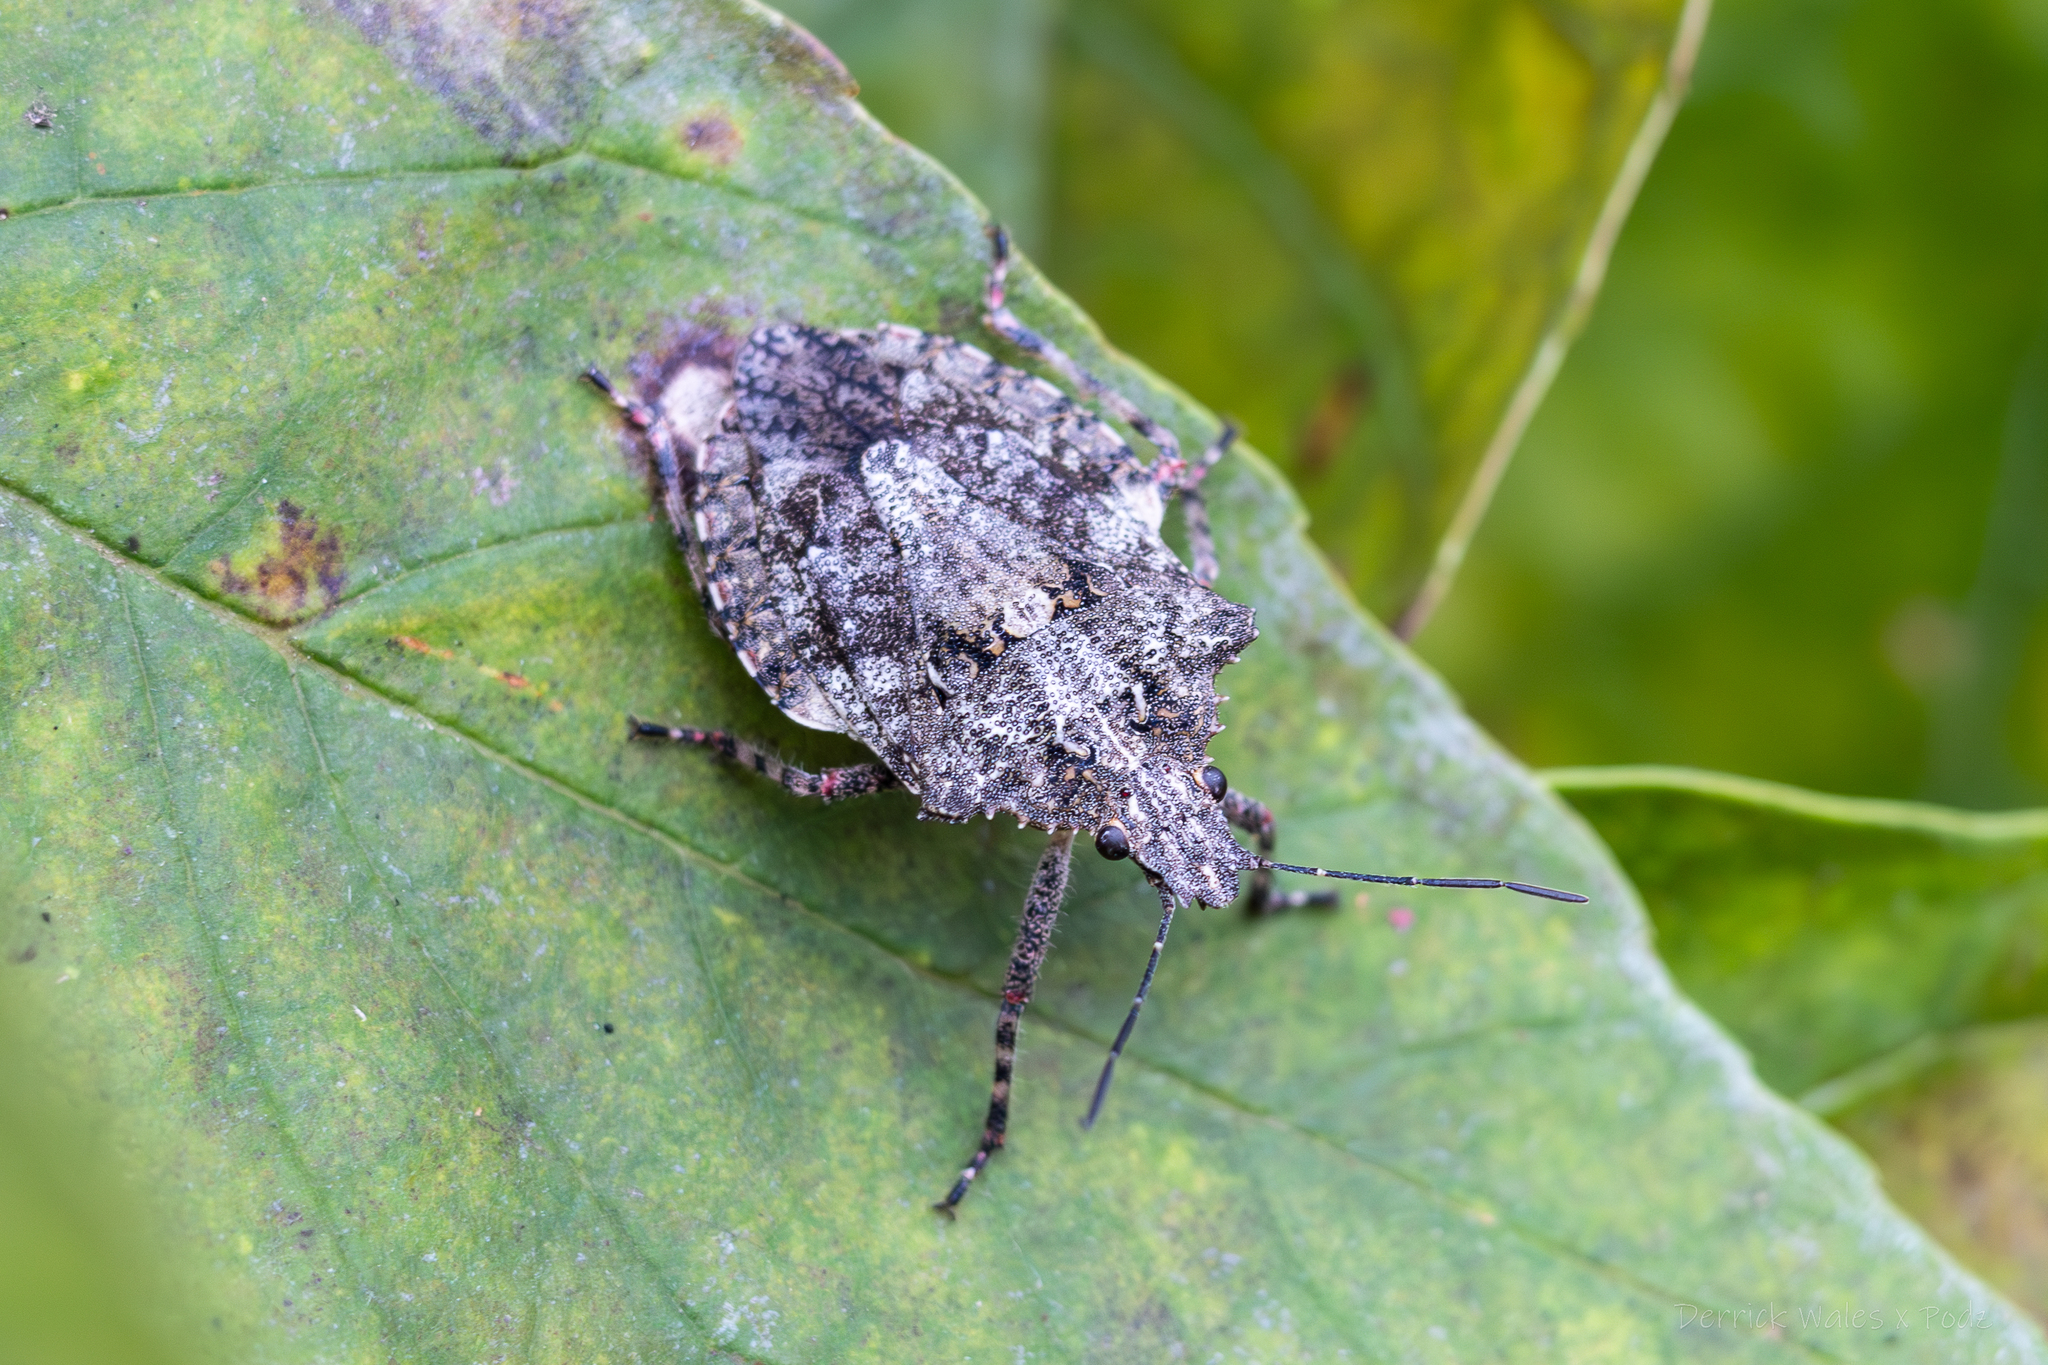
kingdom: Animalia
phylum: Arthropoda
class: Insecta
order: Hemiptera
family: Pentatomidae
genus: Brochymena
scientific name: Brochymena arborea
